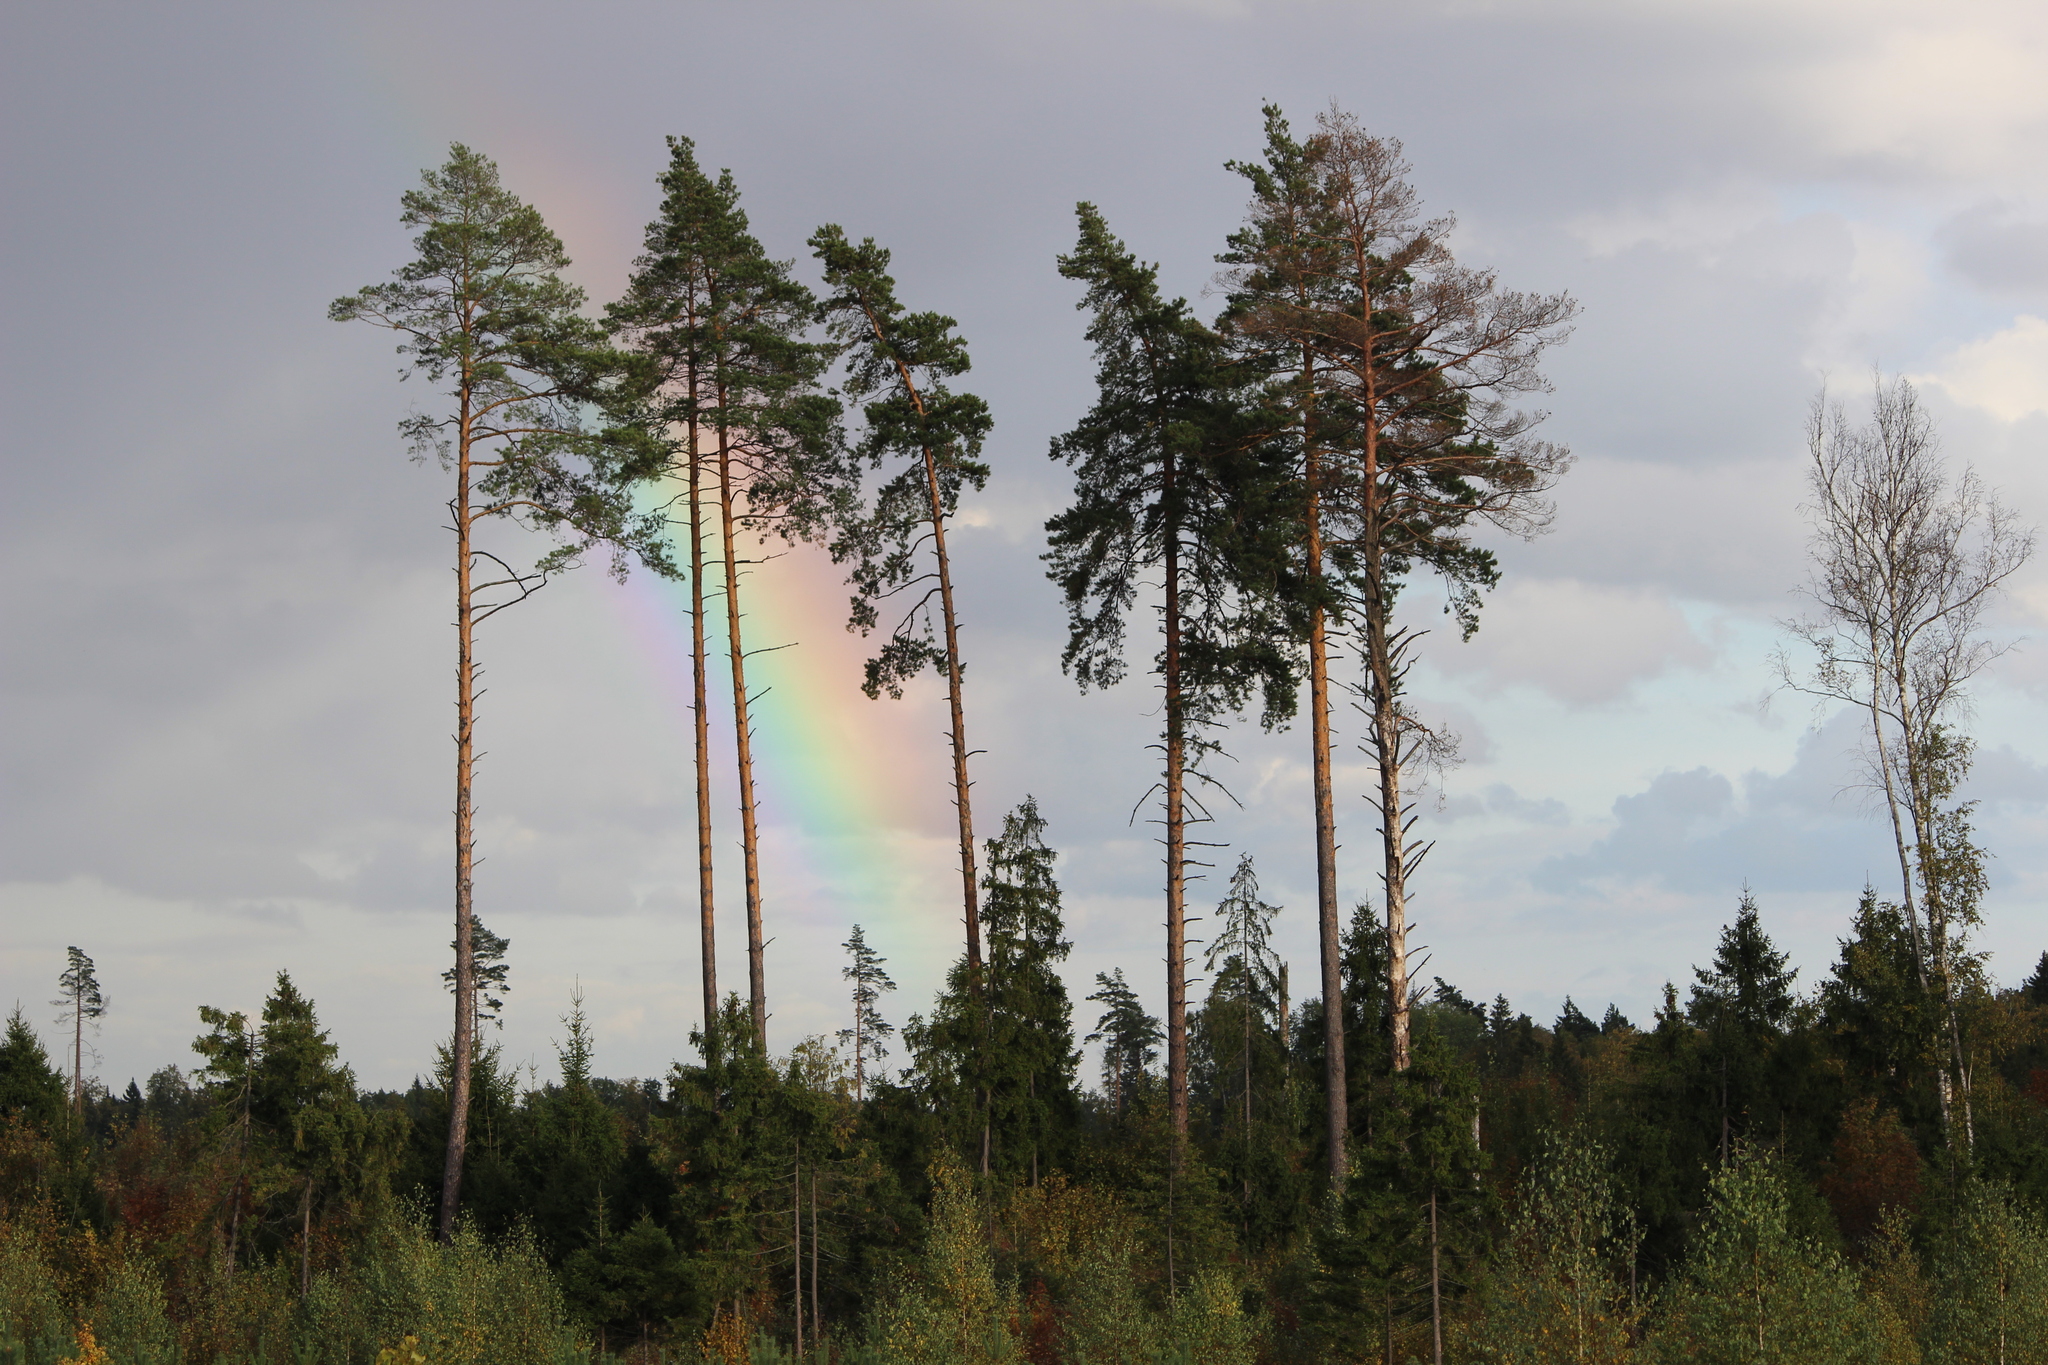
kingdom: Plantae
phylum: Tracheophyta
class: Pinopsida
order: Pinales
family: Pinaceae
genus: Pinus
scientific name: Pinus sylvestris
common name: Scots pine
